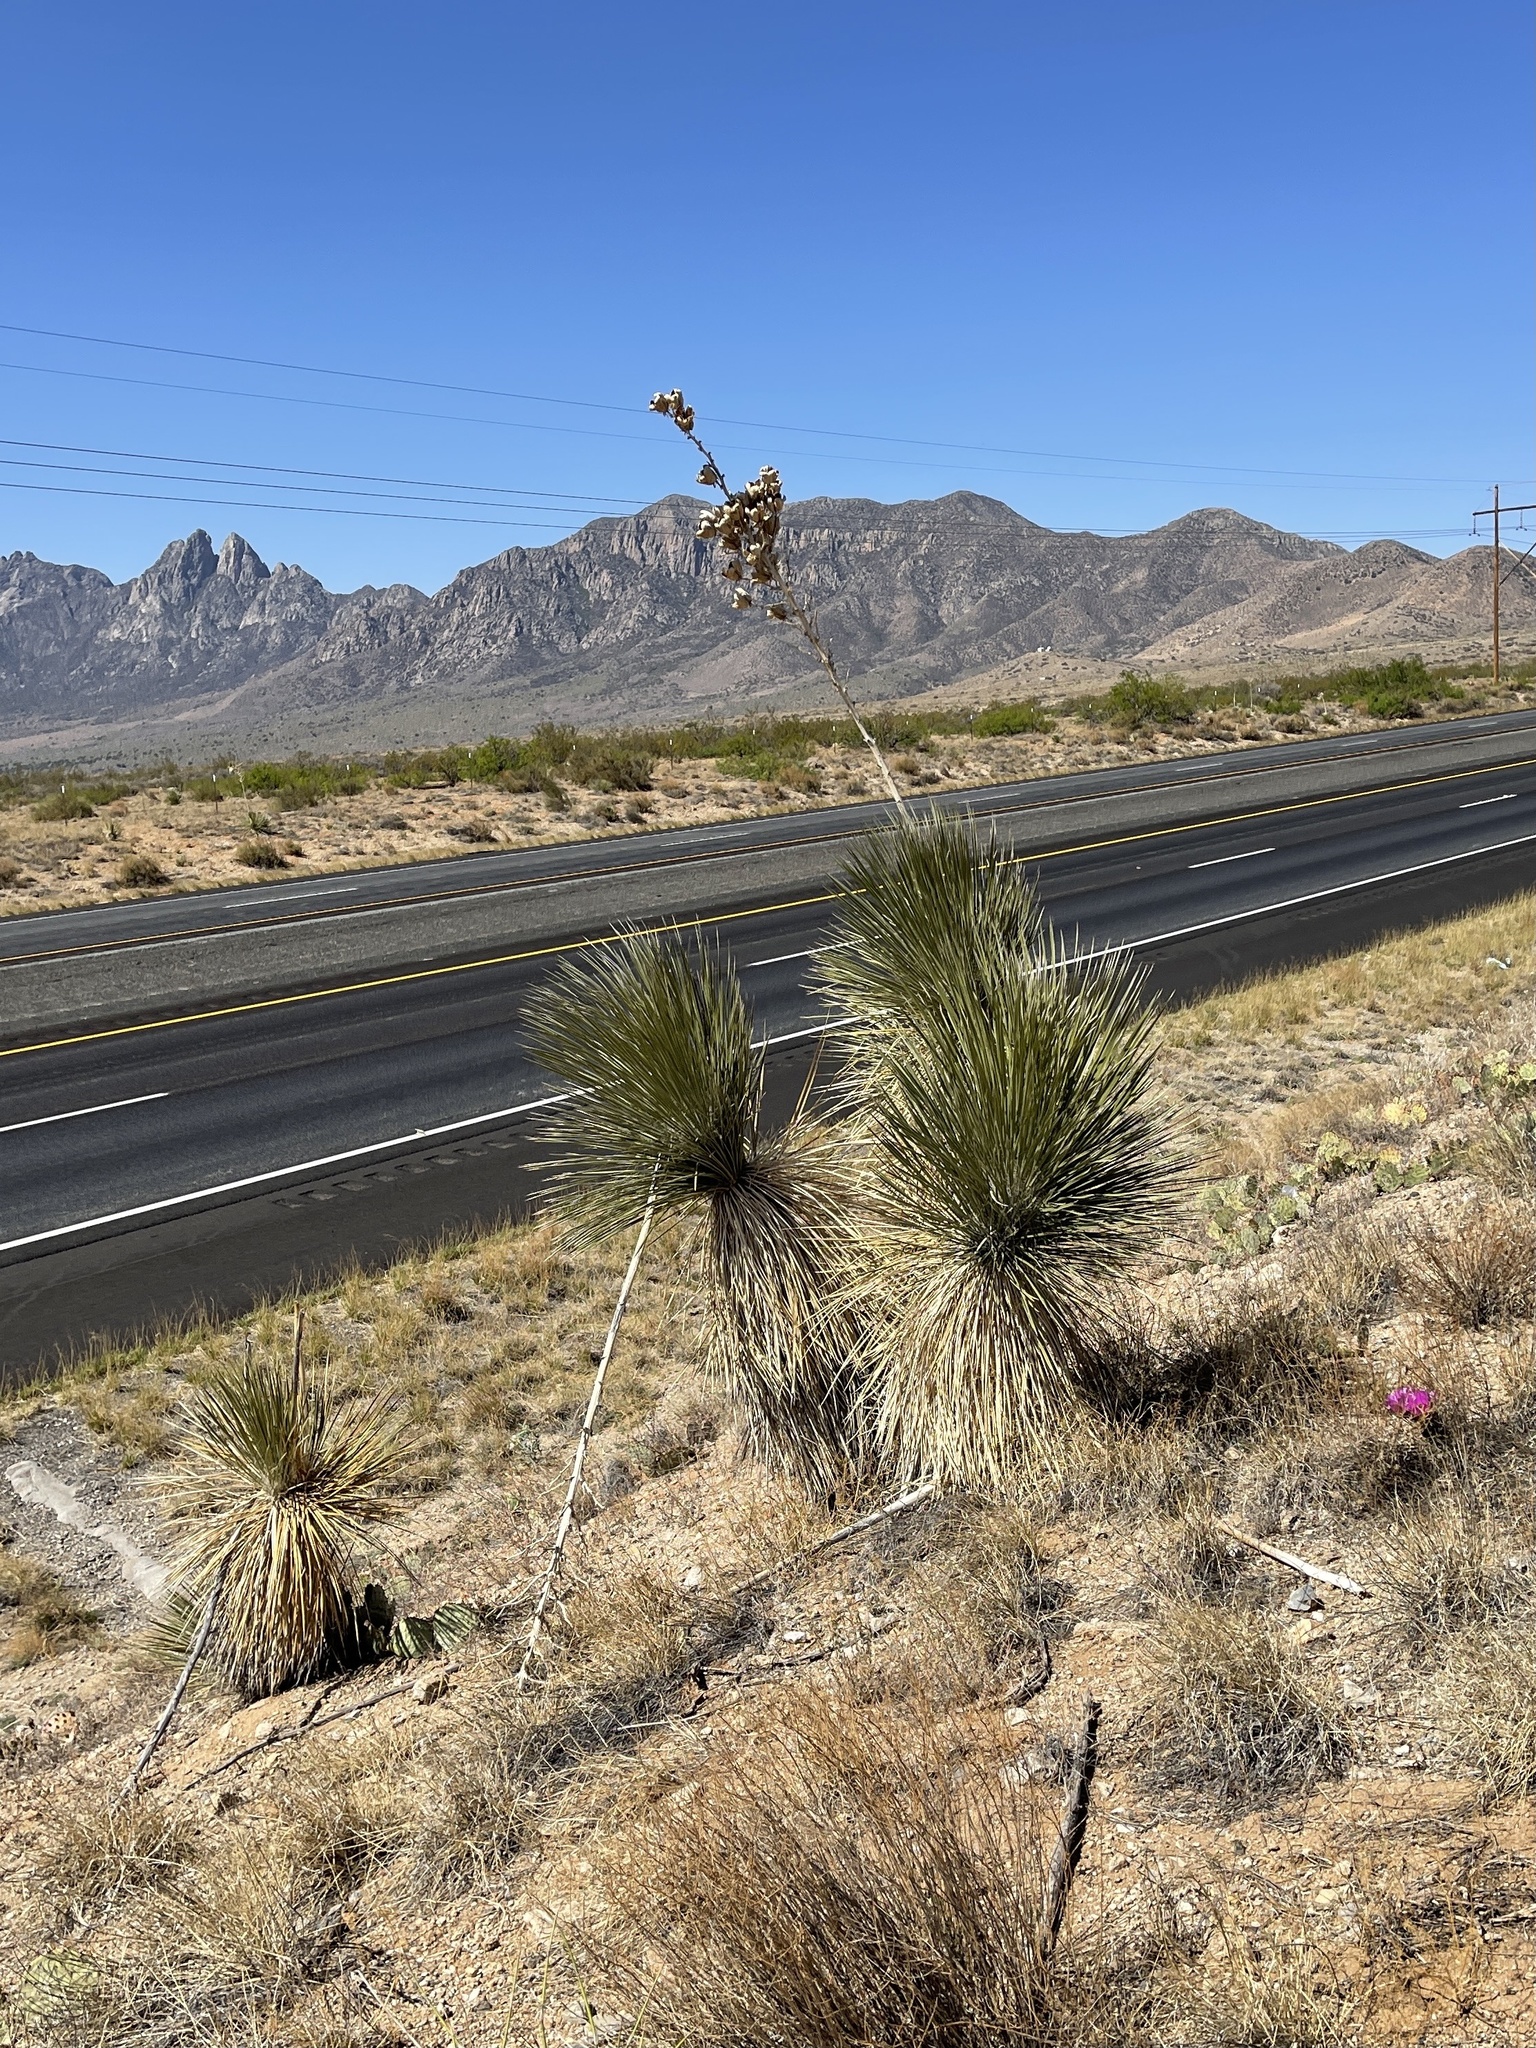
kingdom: Plantae
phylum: Tracheophyta
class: Liliopsida
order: Asparagales
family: Asparagaceae
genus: Yucca
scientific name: Yucca elata
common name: Palmella
